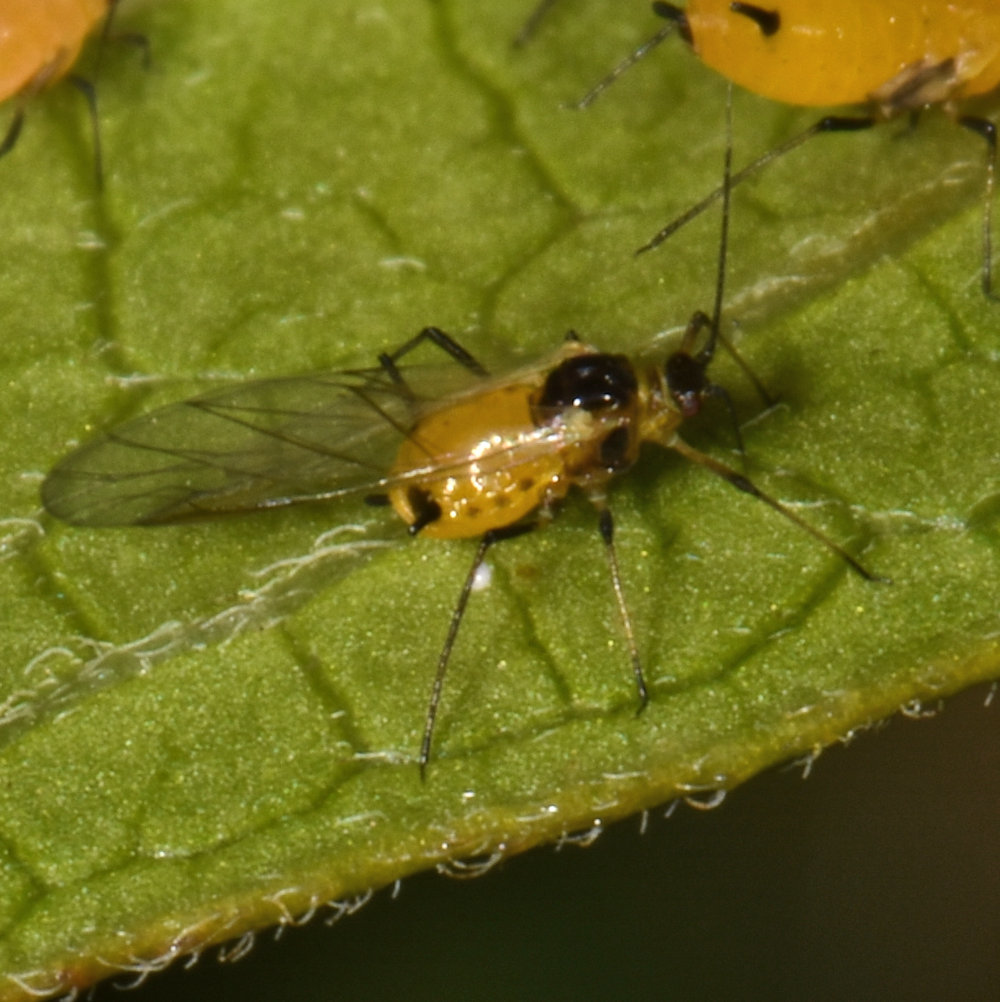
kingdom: Animalia
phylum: Arthropoda
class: Insecta
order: Hemiptera
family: Aphididae
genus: Aphis
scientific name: Aphis nerii
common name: Oleander aphid
